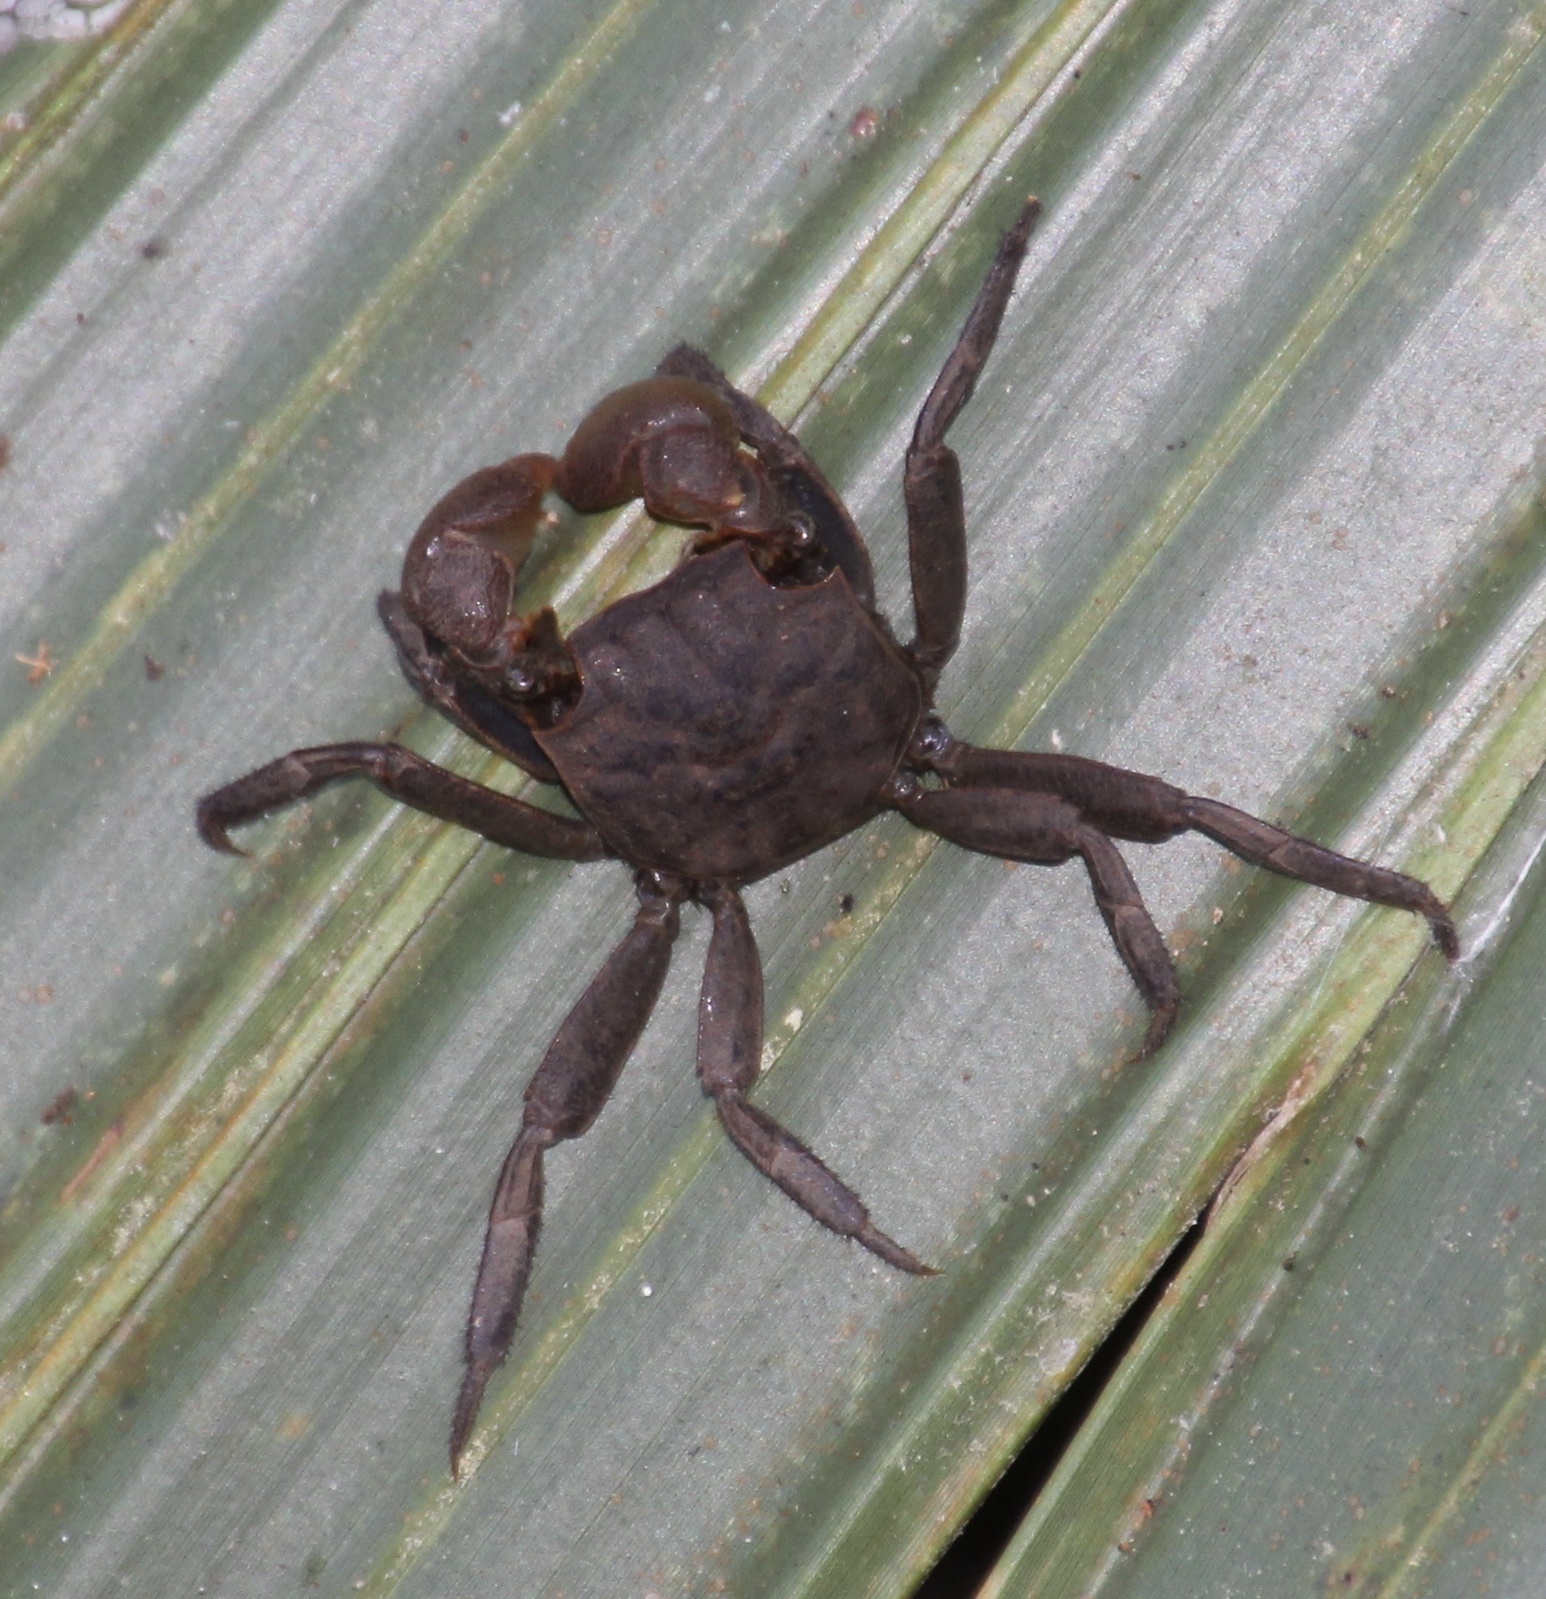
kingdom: Animalia
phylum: Arthropoda
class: Malacostraca
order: Decapoda
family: Sesarmidae
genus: Armases
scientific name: Armases cinereum
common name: Squareback marsh crab
